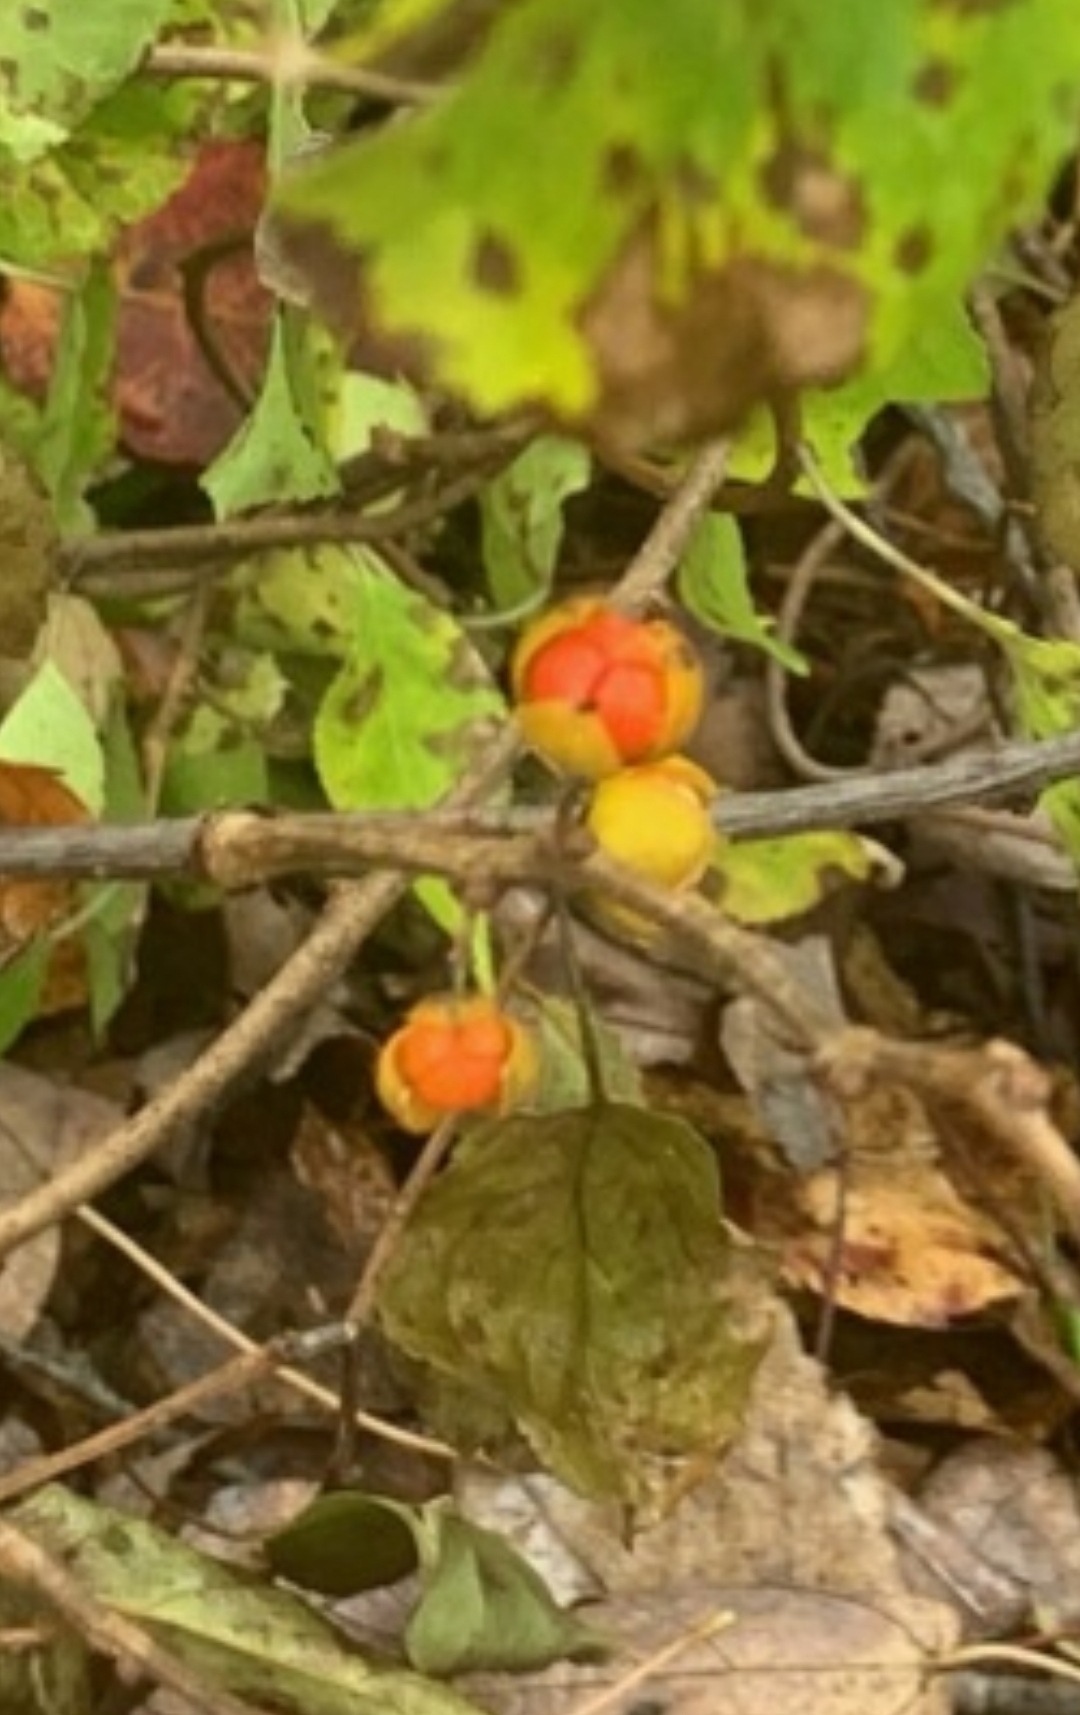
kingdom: Plantae
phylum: Tracheophyta
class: Magnoliopsida
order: Celastrales
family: Celastraceae
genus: Celastrus
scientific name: Celastrus orbiculatus
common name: Oriental bittersweet
